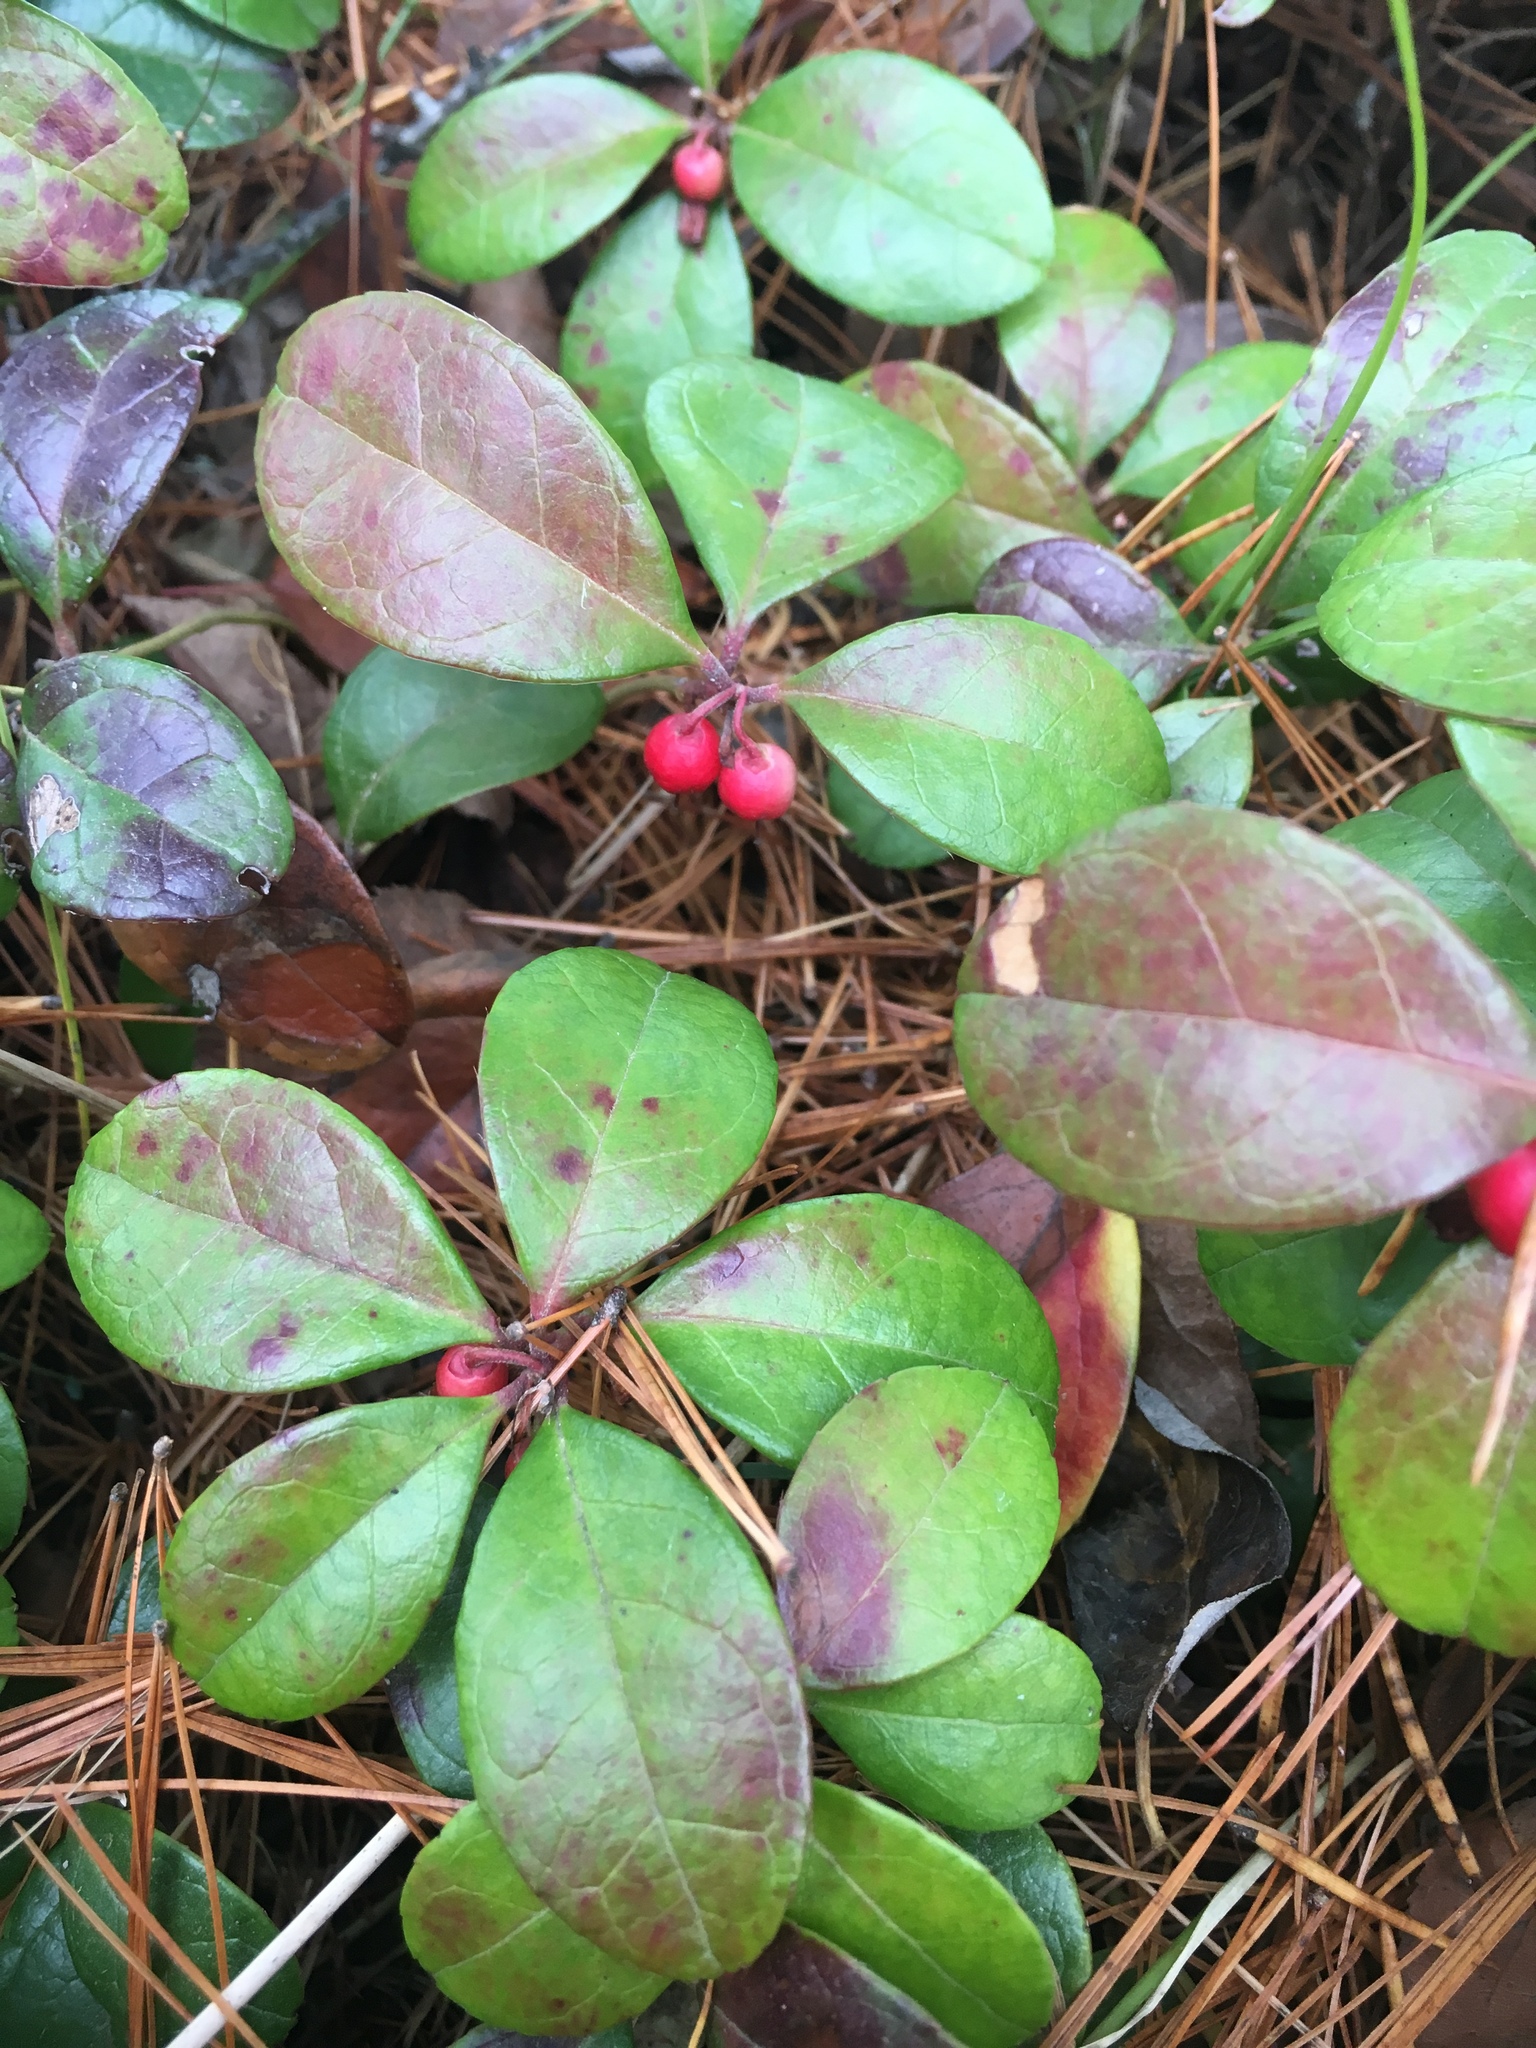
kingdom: Plantae
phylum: Tracheophyta
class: Magnoliopsida
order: Ericales
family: Ericaceae
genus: Gaultheria
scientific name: Gaultheria procumbens
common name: Checkerberry
